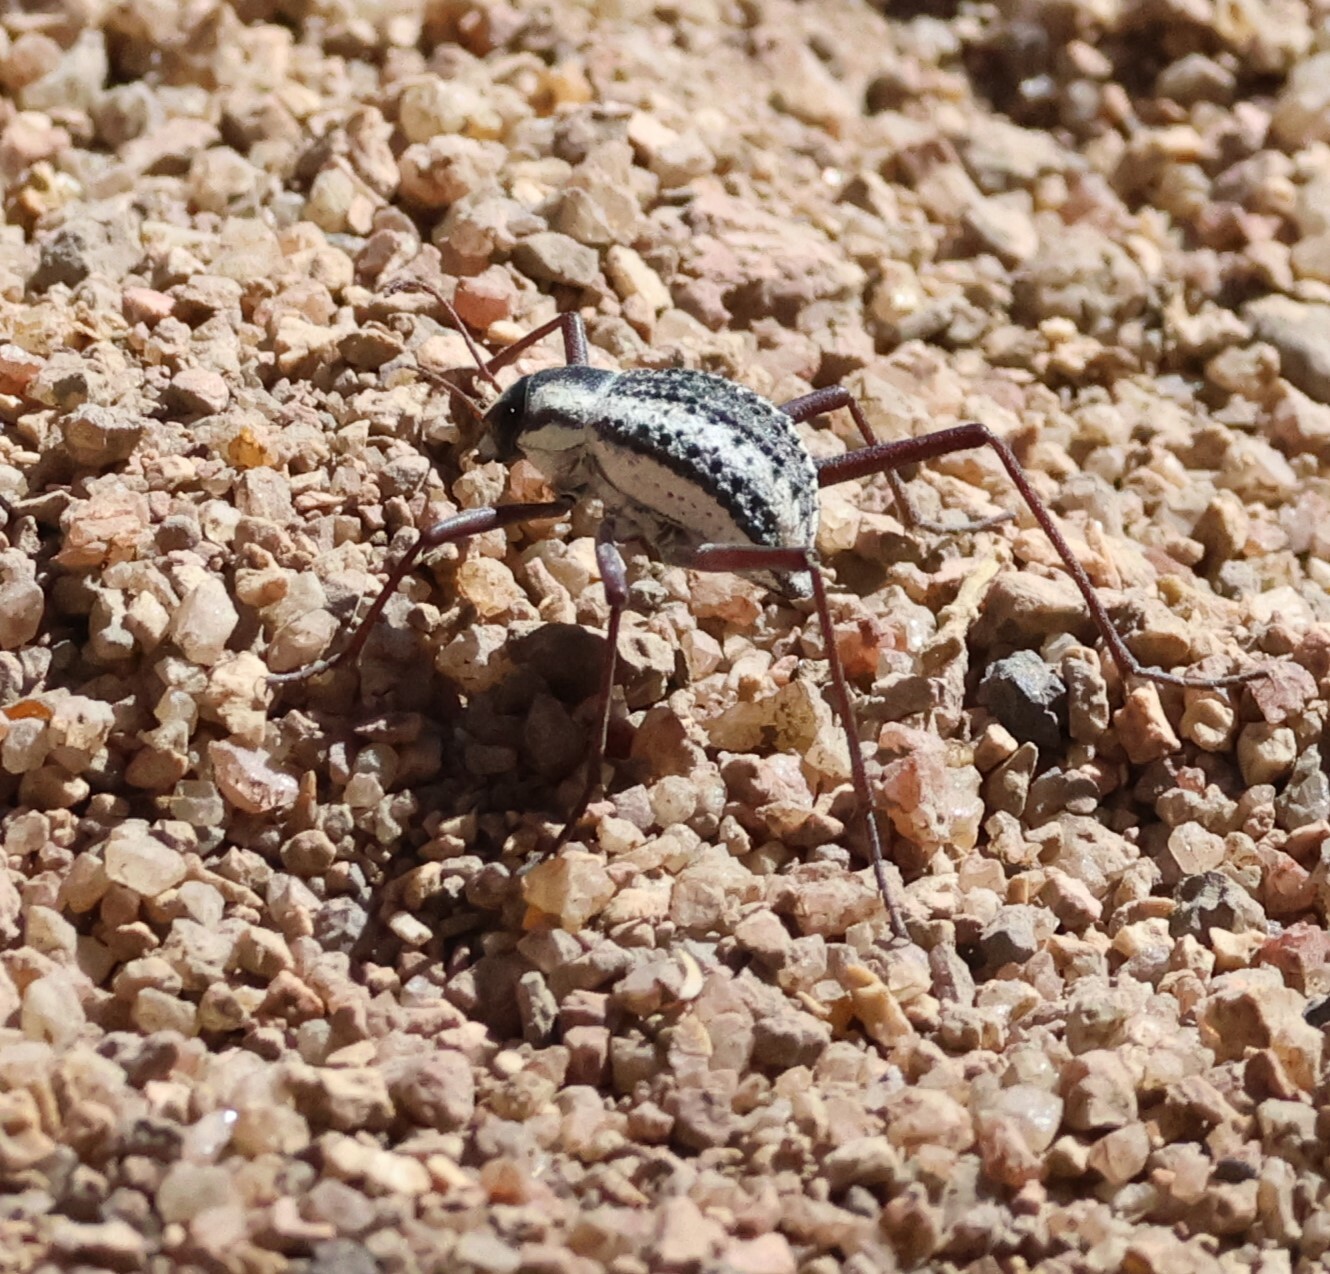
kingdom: Animalia
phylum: Arthropoda
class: Insecta
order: Coleoptera
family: Tenebrionidae
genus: Stenocara
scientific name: Stenocara
